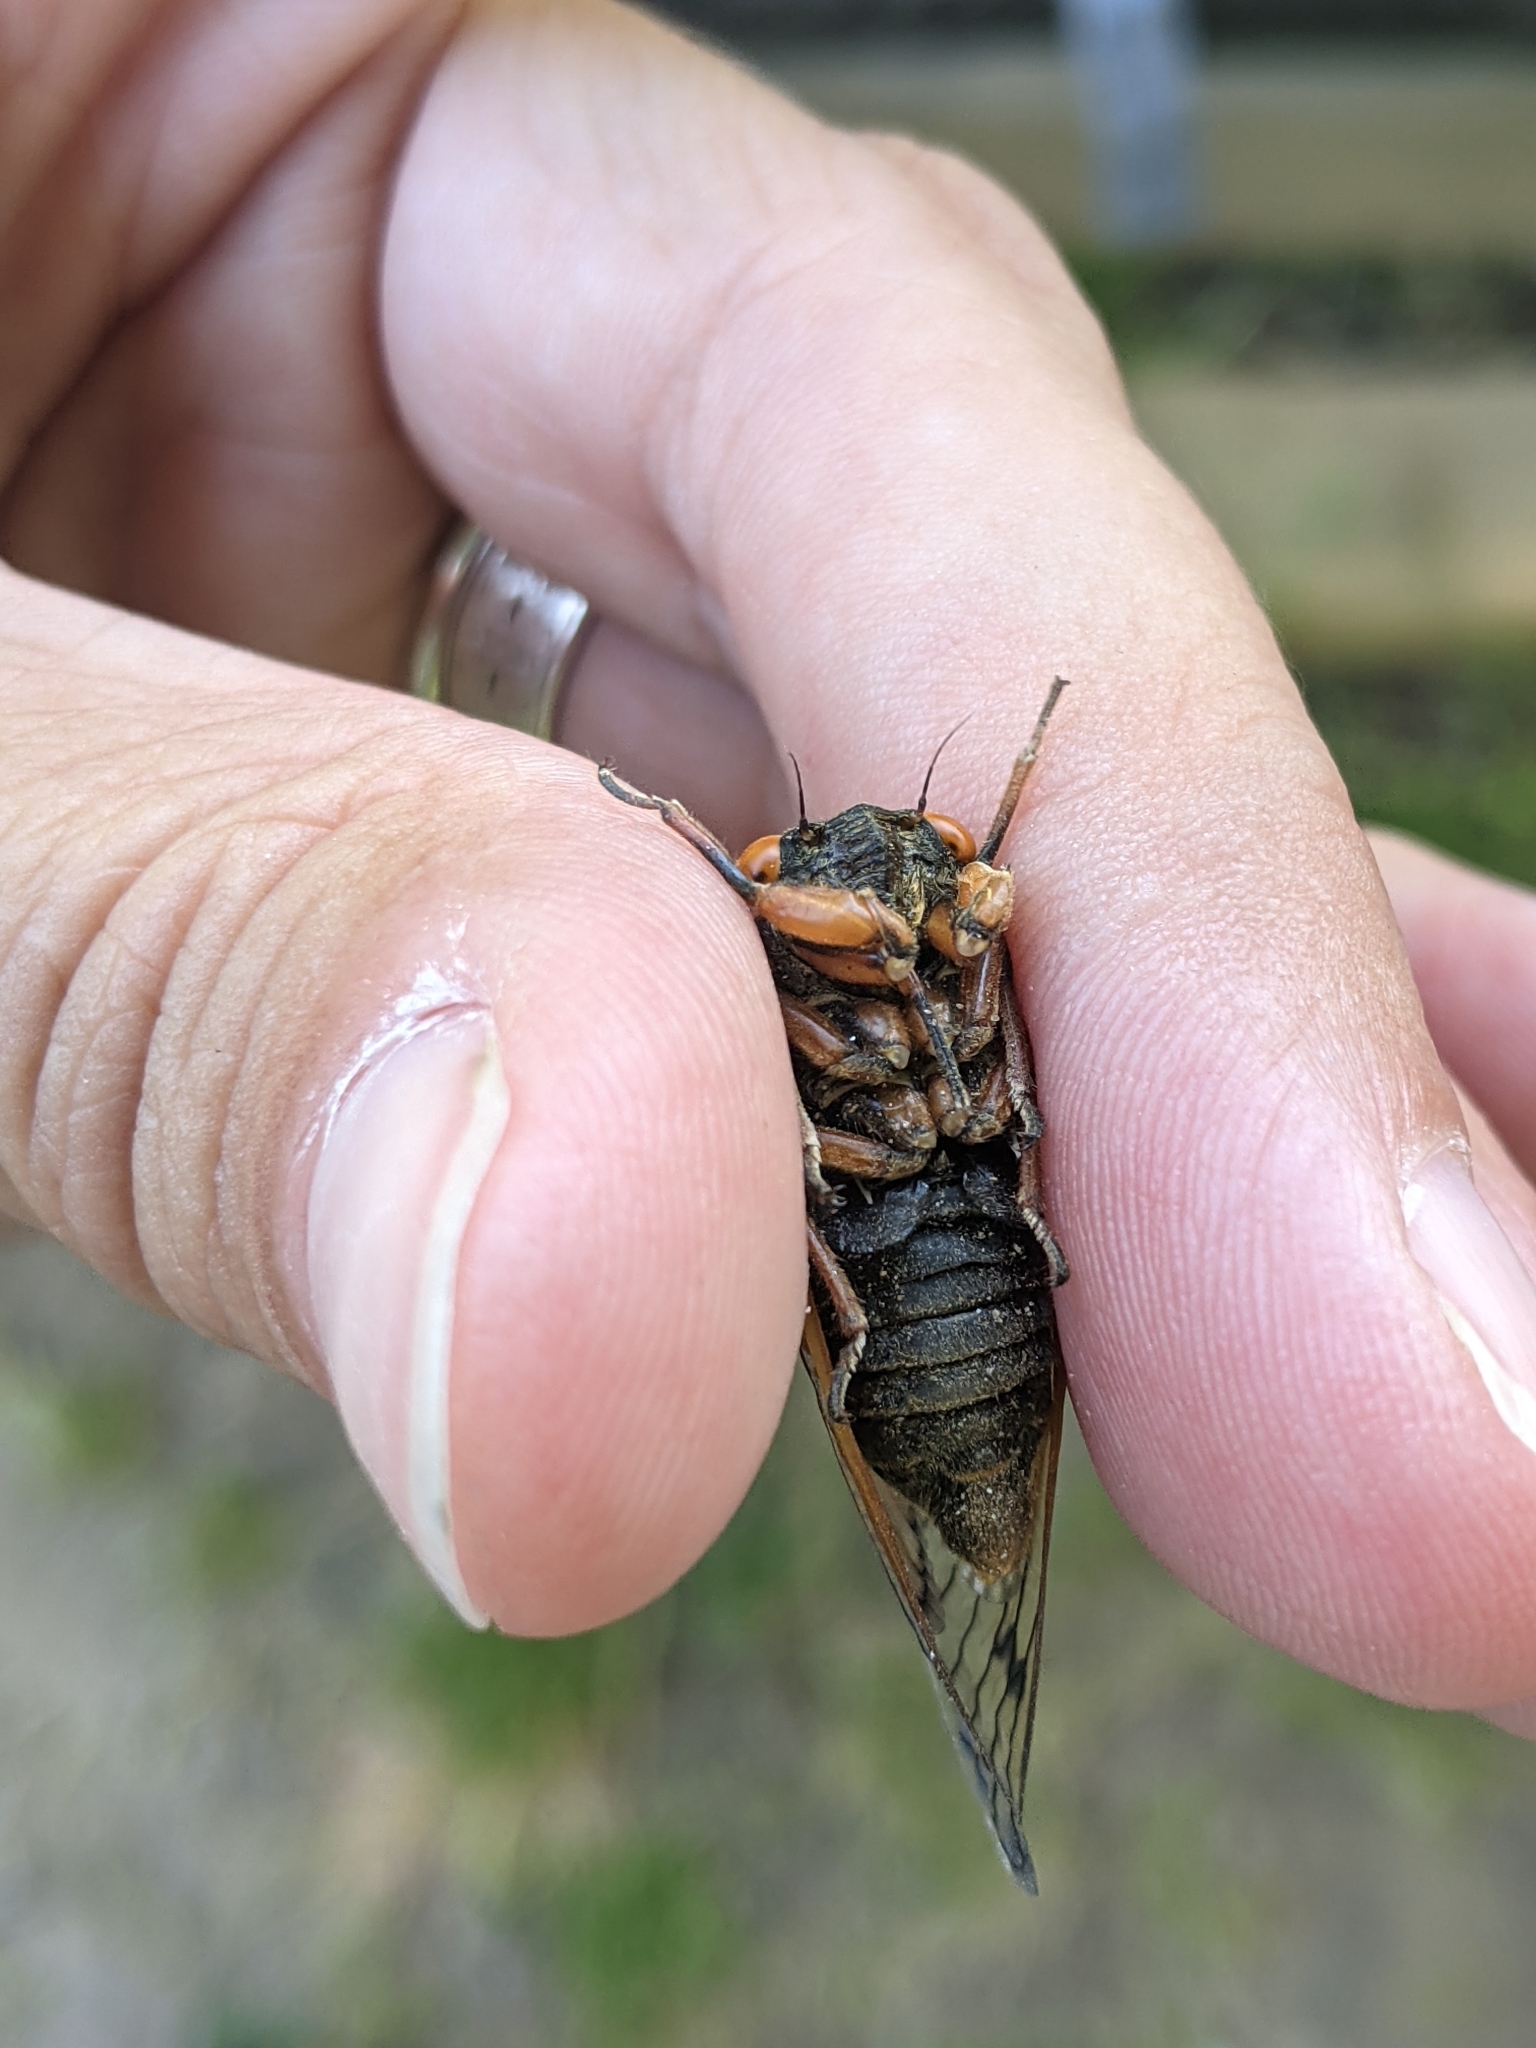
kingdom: Animalia
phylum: Arthropoda
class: Insecta
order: Hemiptera
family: Cicadidae
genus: Magicicada
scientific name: Magicicada cassini
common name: Cassin's 17-year cicada
